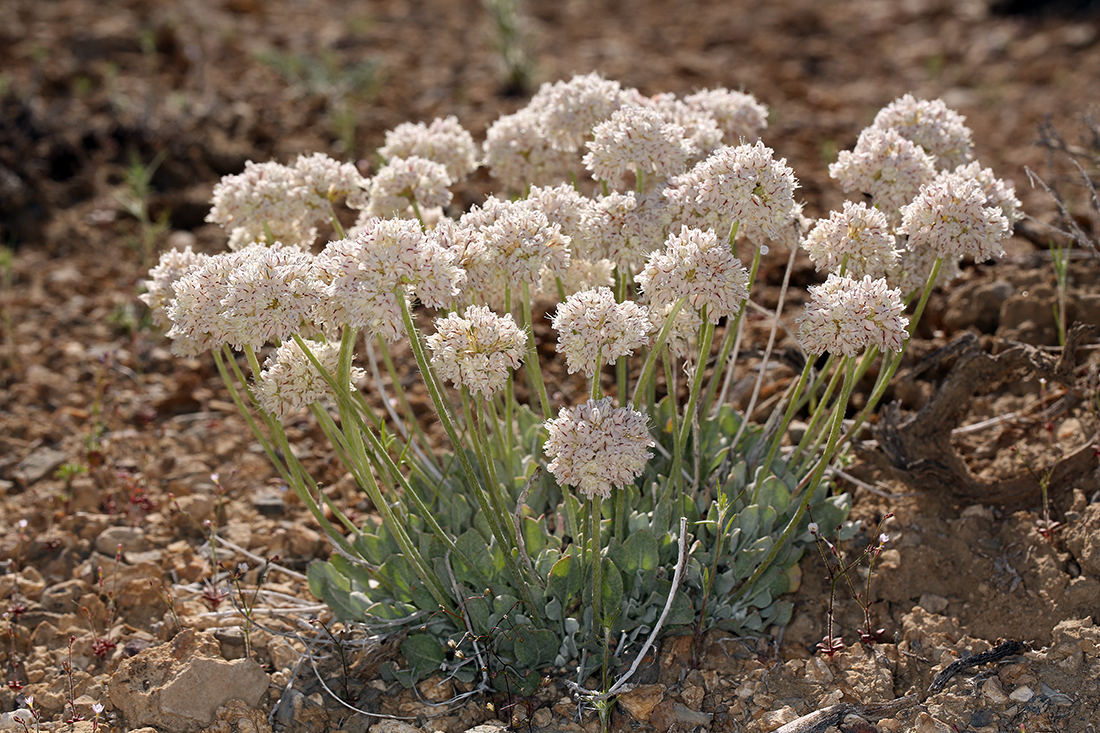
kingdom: Plantae
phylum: Tracheophyta
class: Magnoliopsida
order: Caryophyllales
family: Polygonaceae
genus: Eriogonum
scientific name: Eriogonum ovalifolium
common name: Cushion buckwheat
